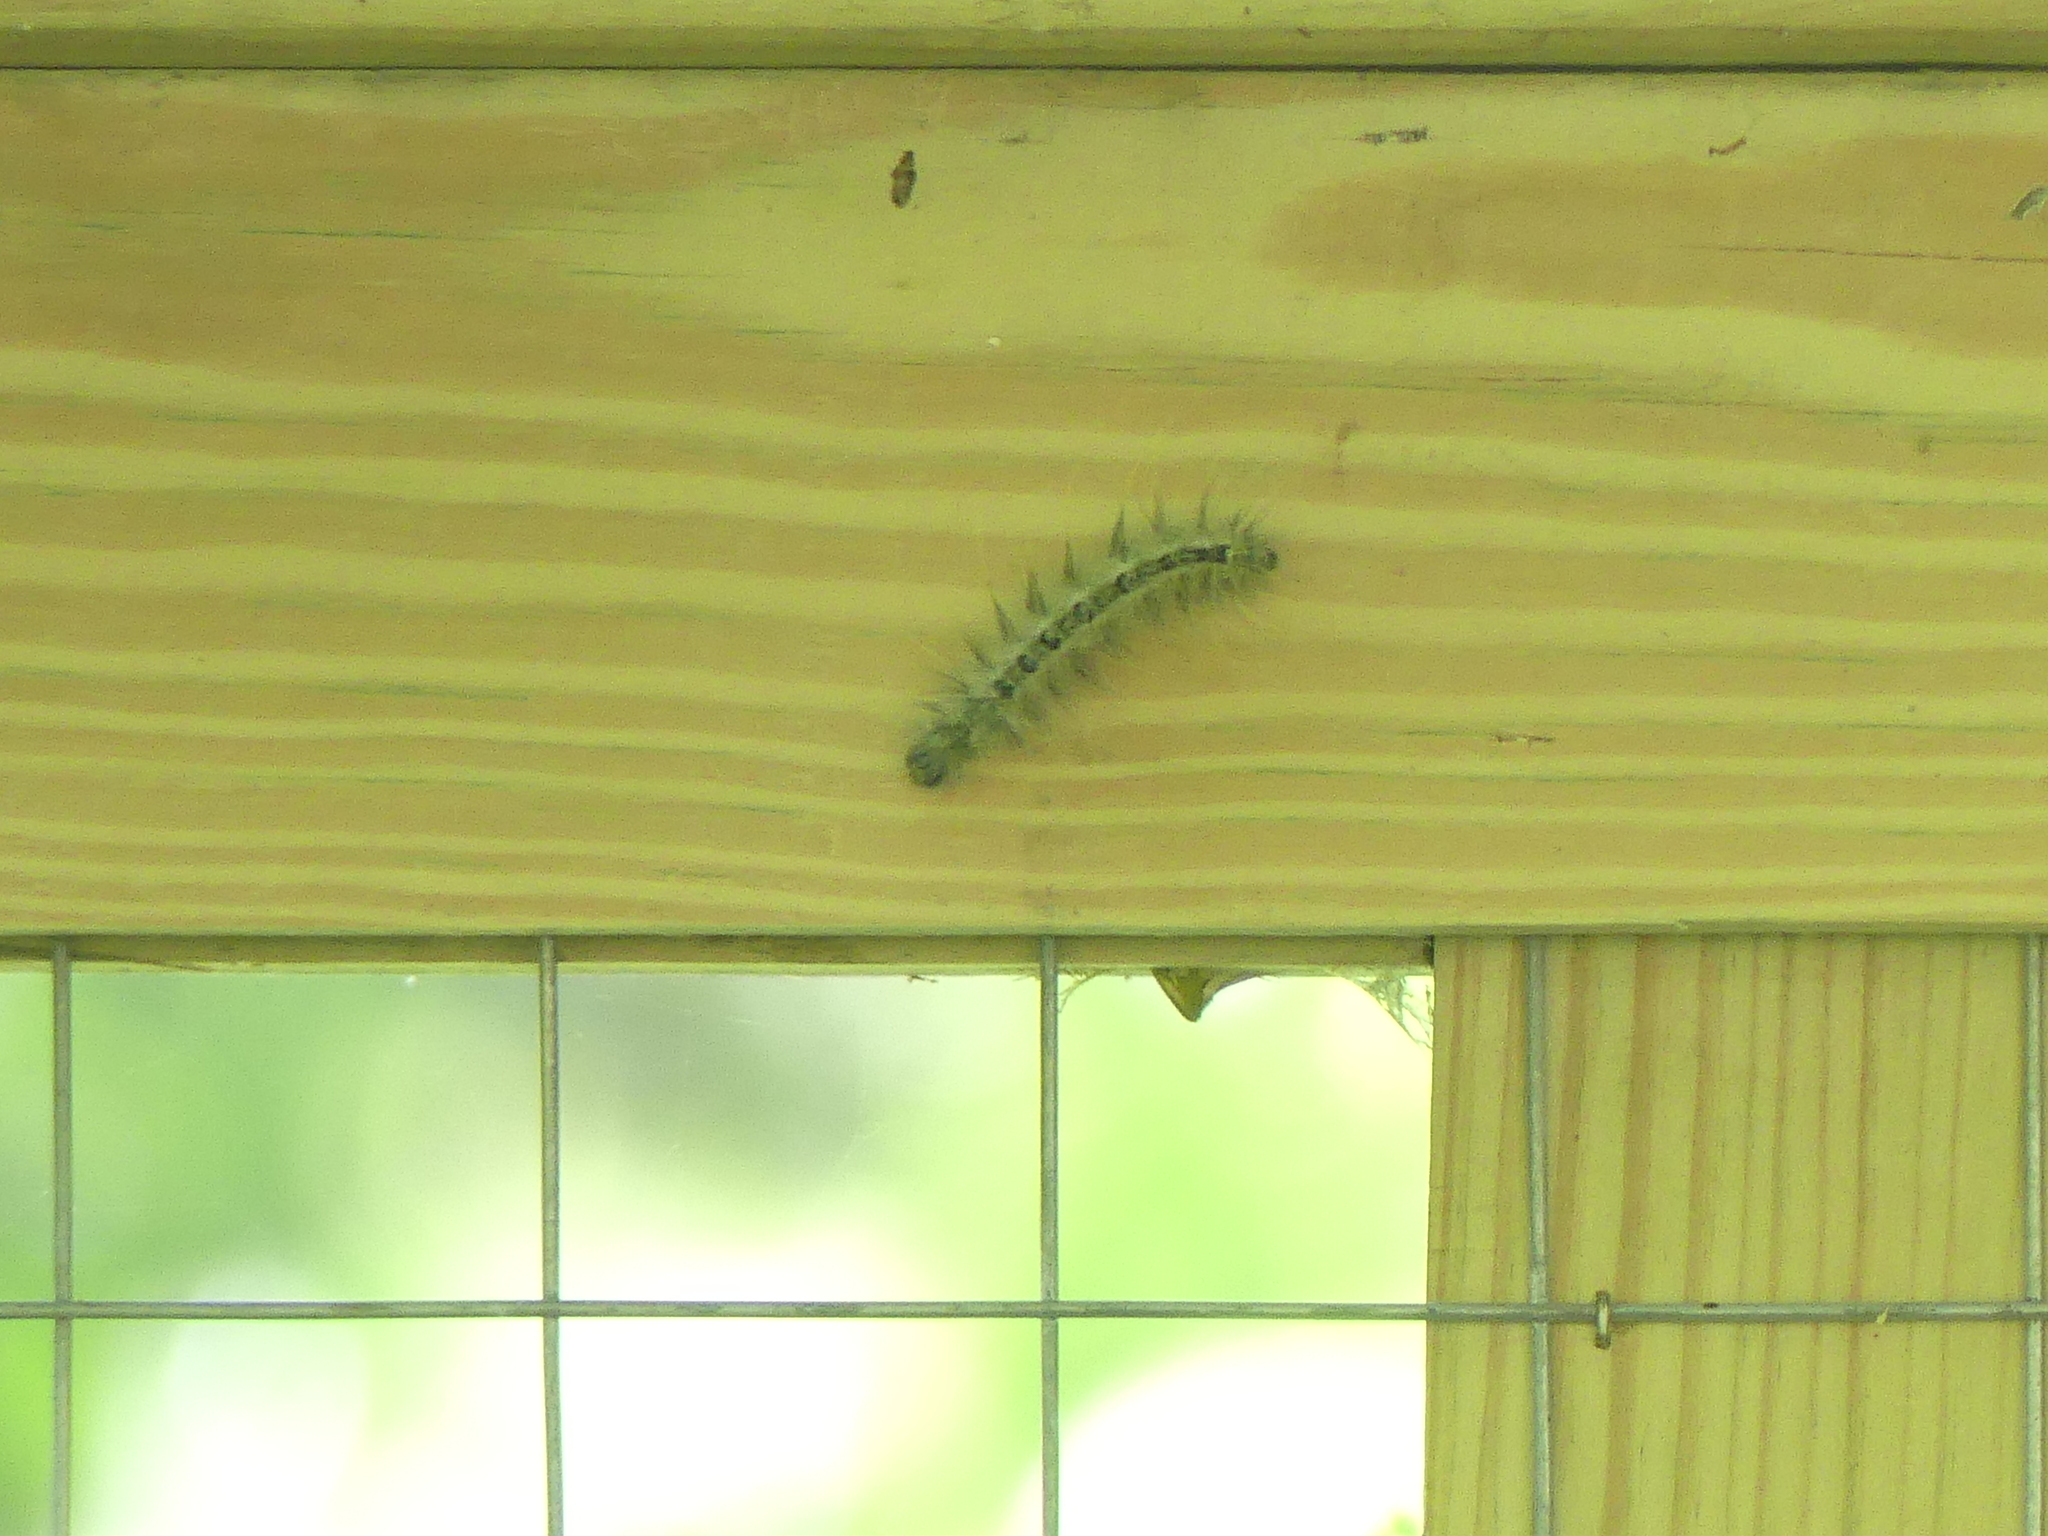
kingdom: Animalia
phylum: Arthropoda
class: Insecta
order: Lepidoptera
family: Noctuidae
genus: Acronicta
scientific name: Acronicta rubricoma
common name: Hackberry dagger
